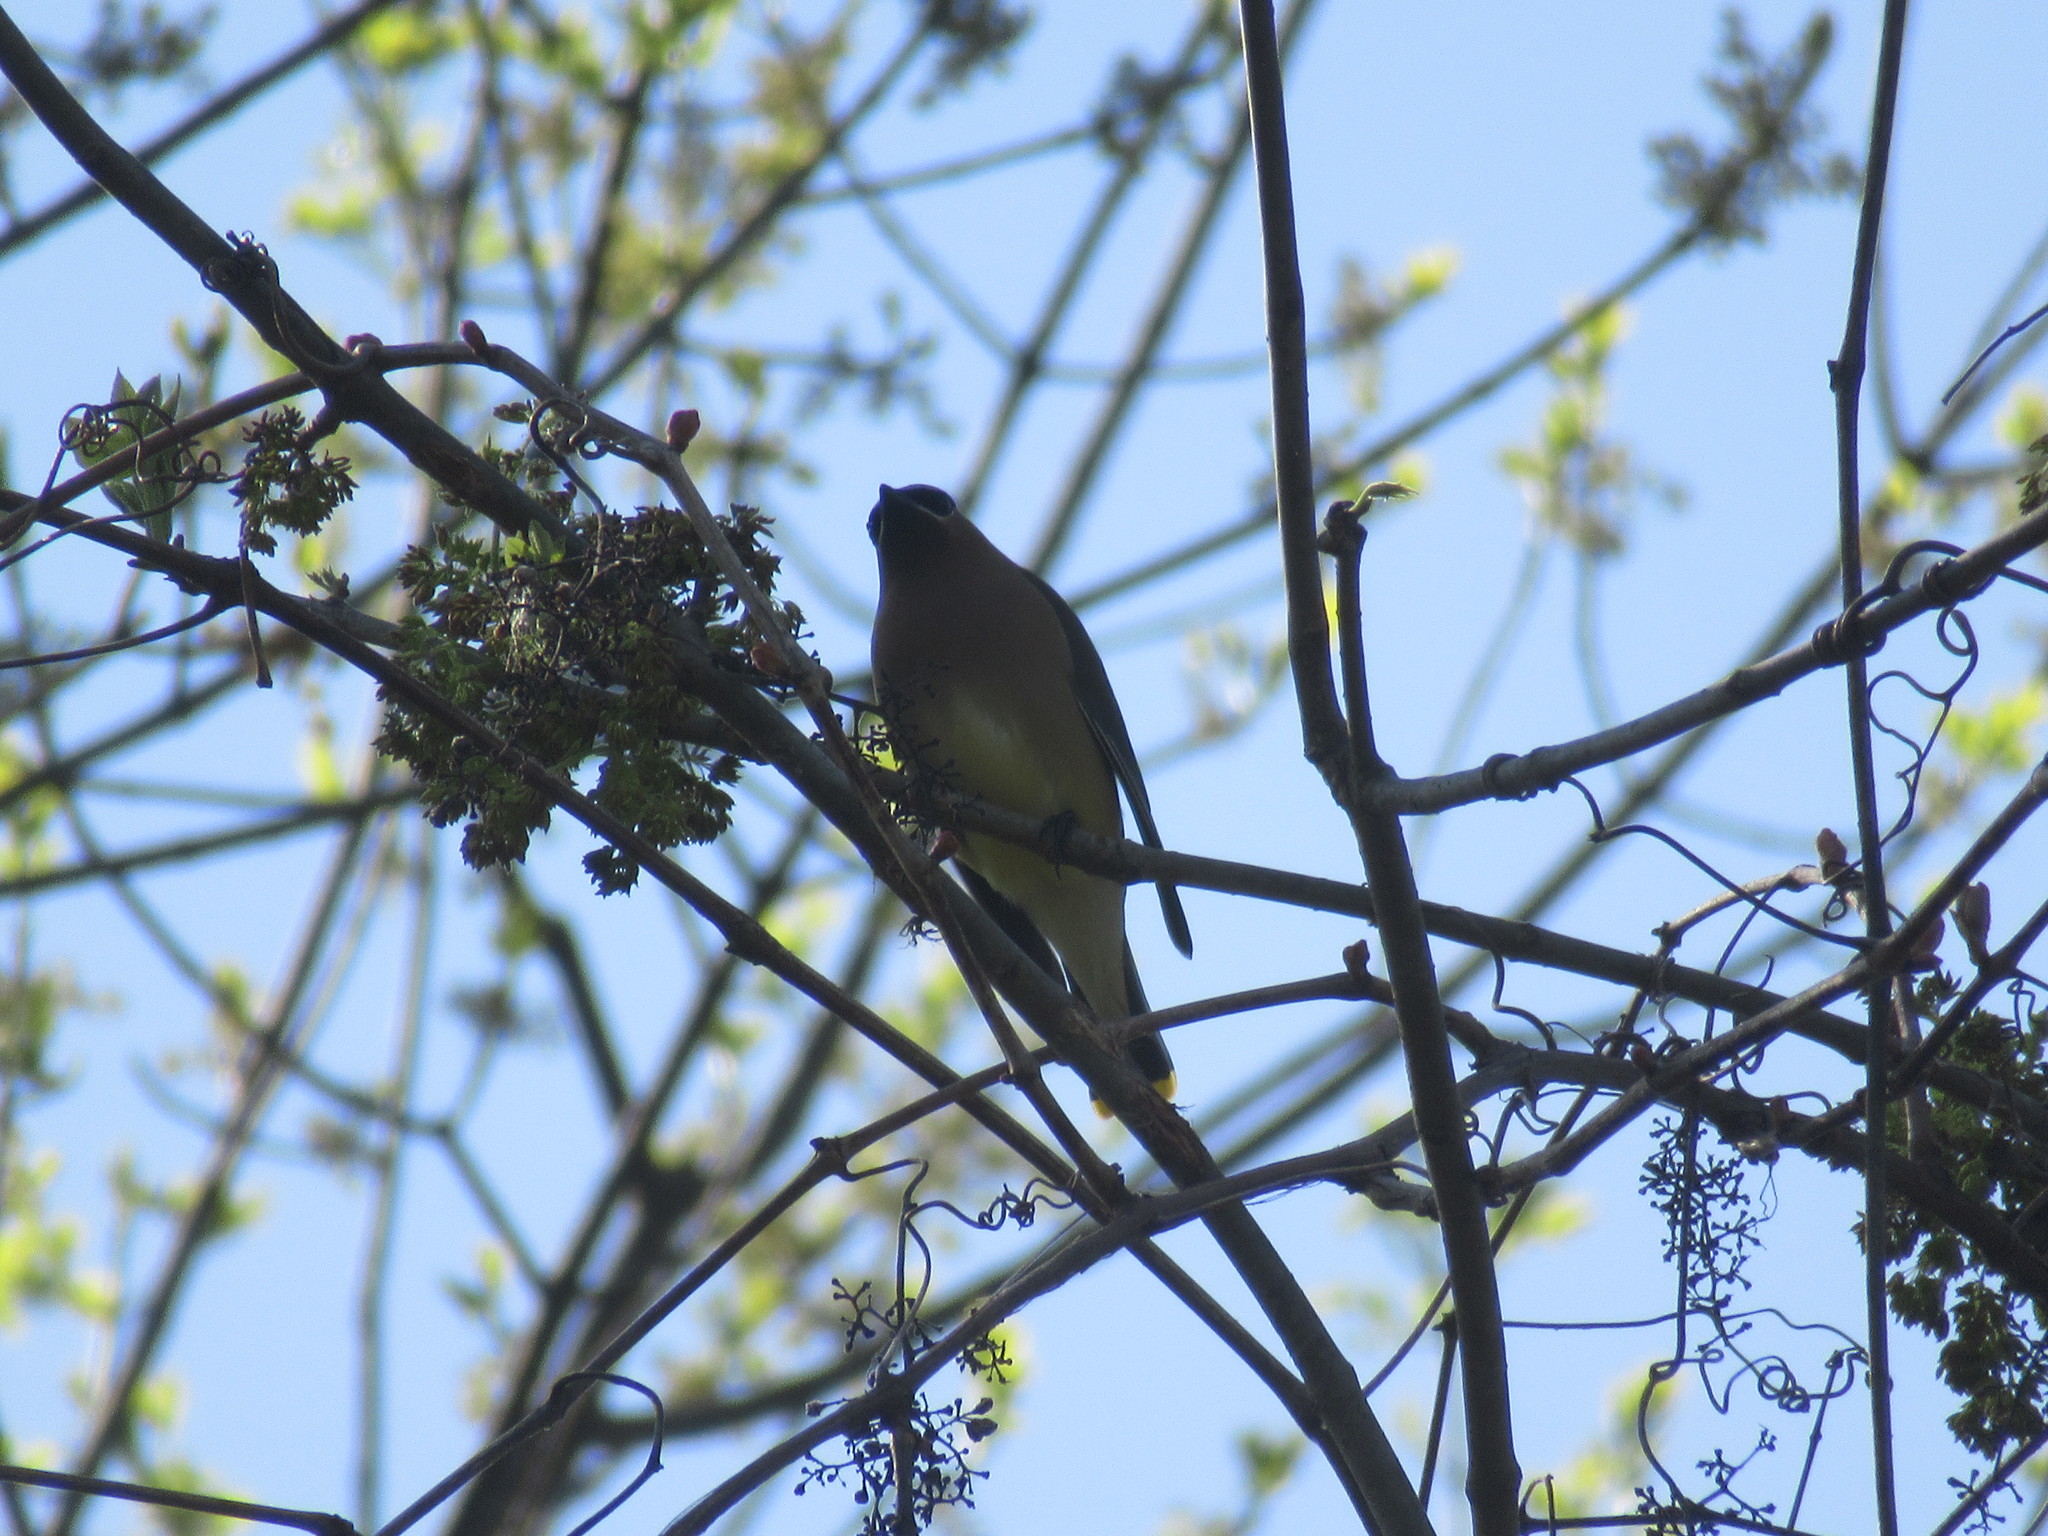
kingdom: Animalia
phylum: Chordata
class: Aves
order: Passeriformes
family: Bombycillidae
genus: Bombycilla
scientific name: Bombycilla cedrorum
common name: Cedar waxwing
